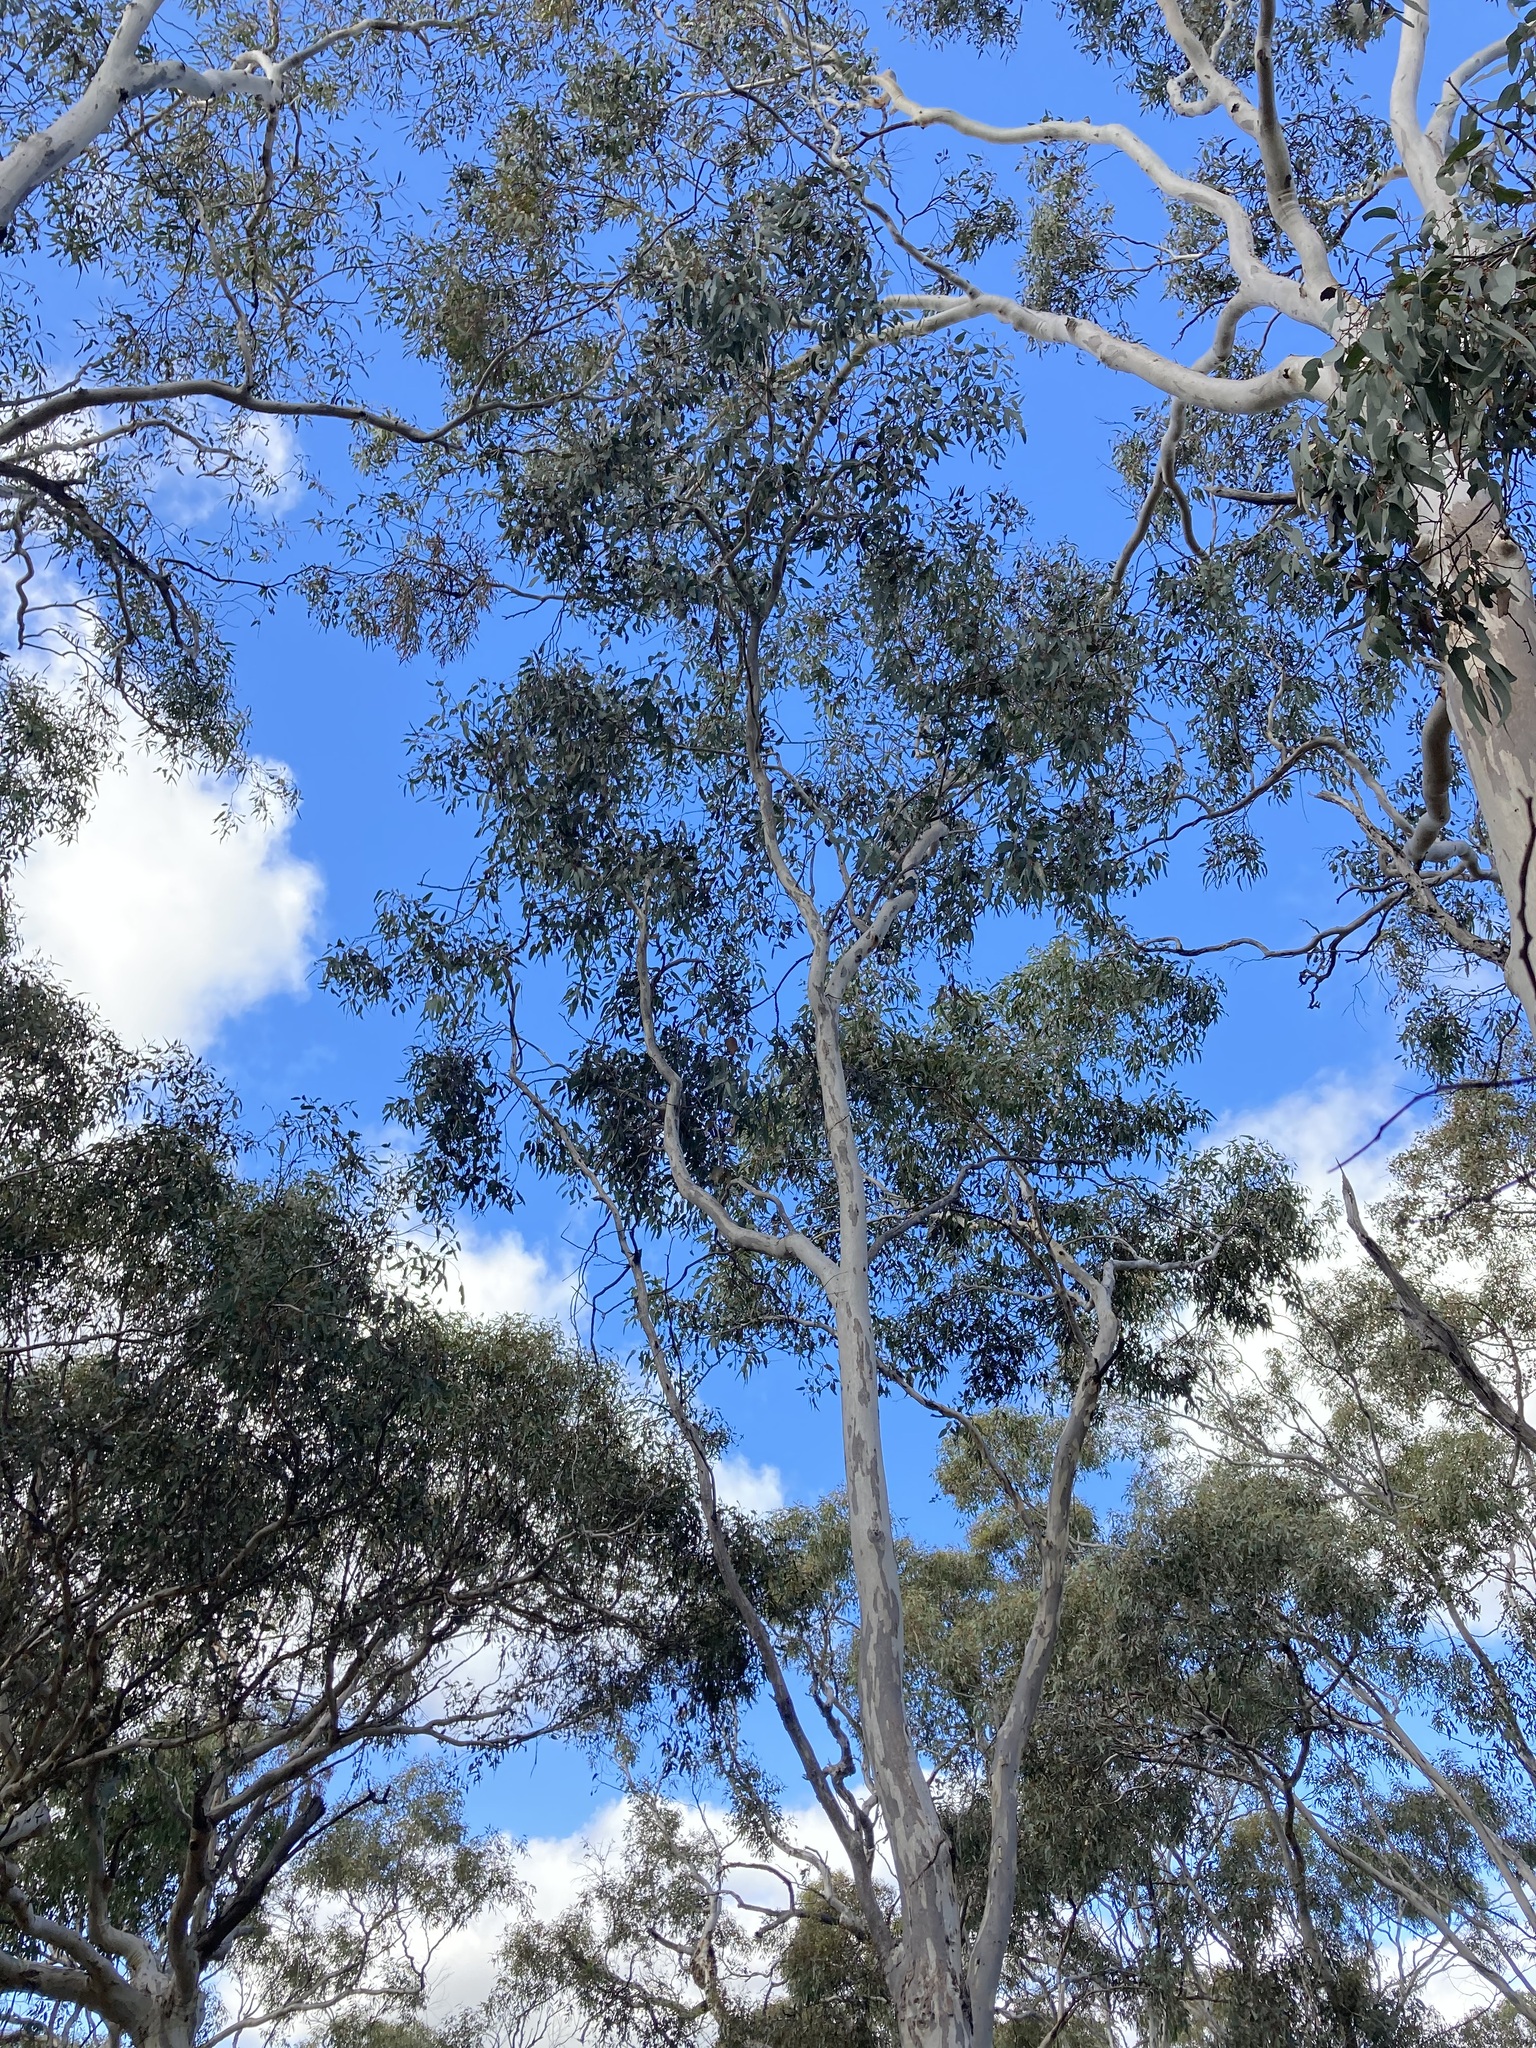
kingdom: Plantae
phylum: Tracheophyta
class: Magnoliopsida
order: Myrtales
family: Myrtaceae
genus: Eucalyptus
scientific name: Eucalyptus wandoo
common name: White gum
